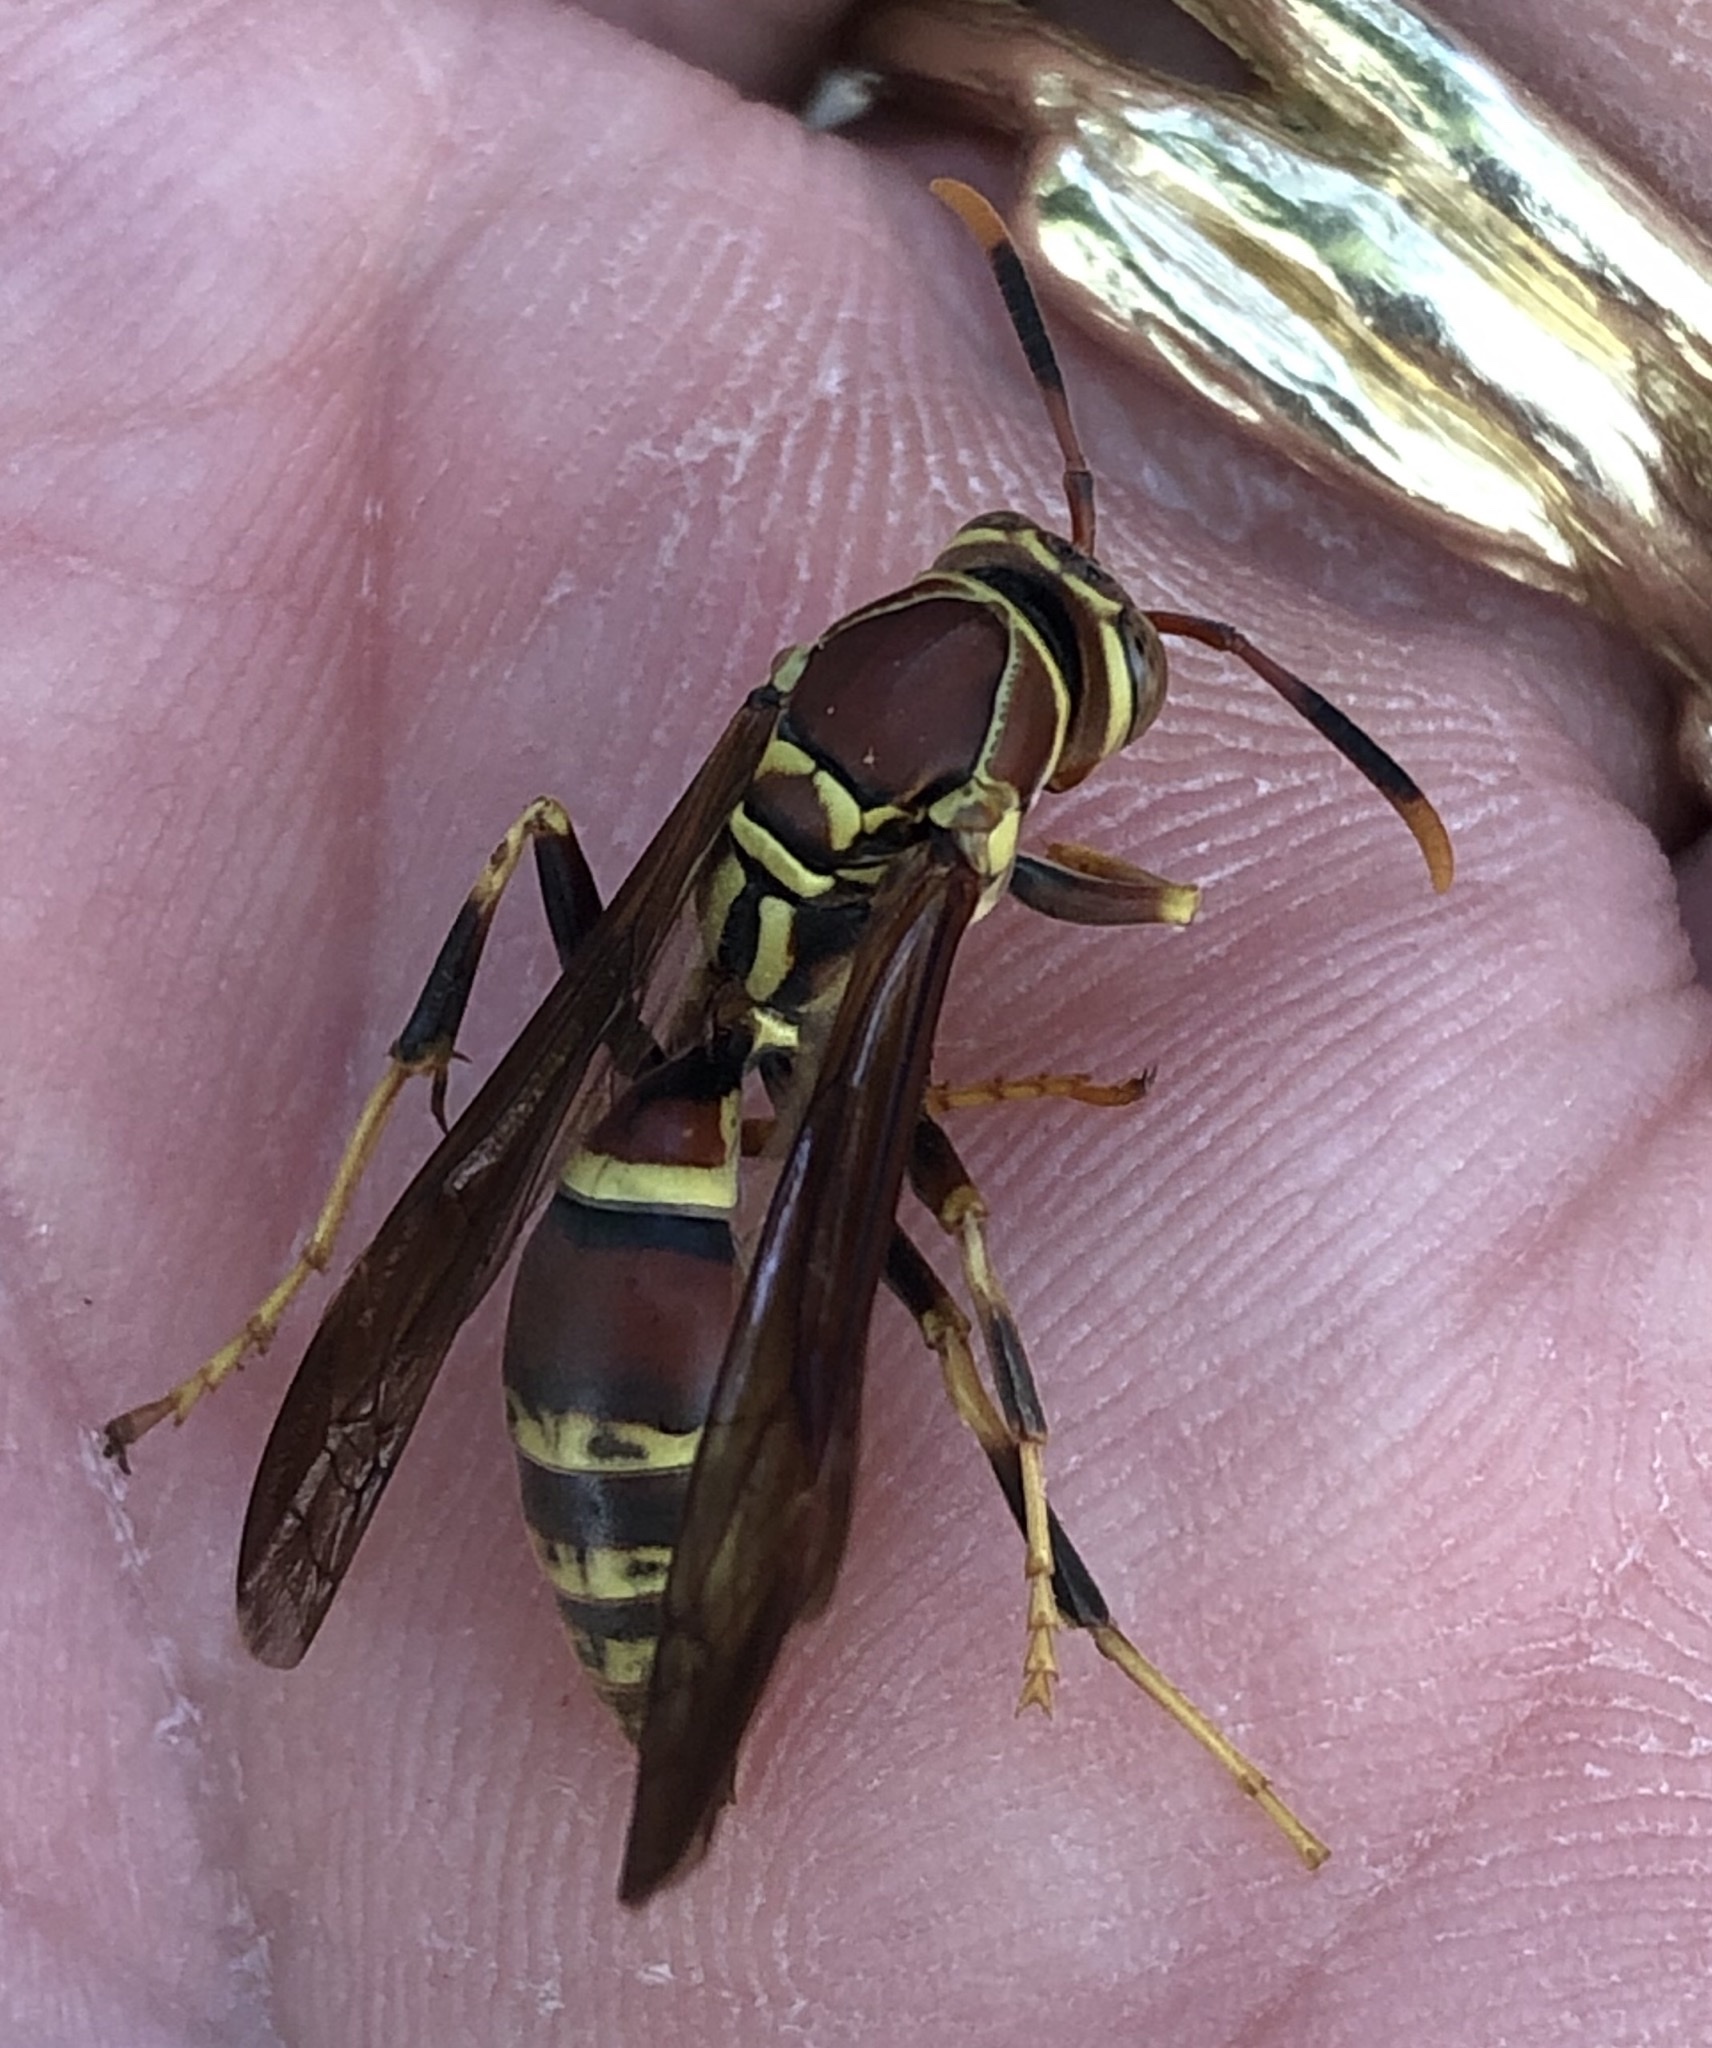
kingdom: Animalia
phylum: Arthropoda
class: Insecta
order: Hymenoptera
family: Eumenidae
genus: Polistes
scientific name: Polistes exclamans
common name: Paper wasp
